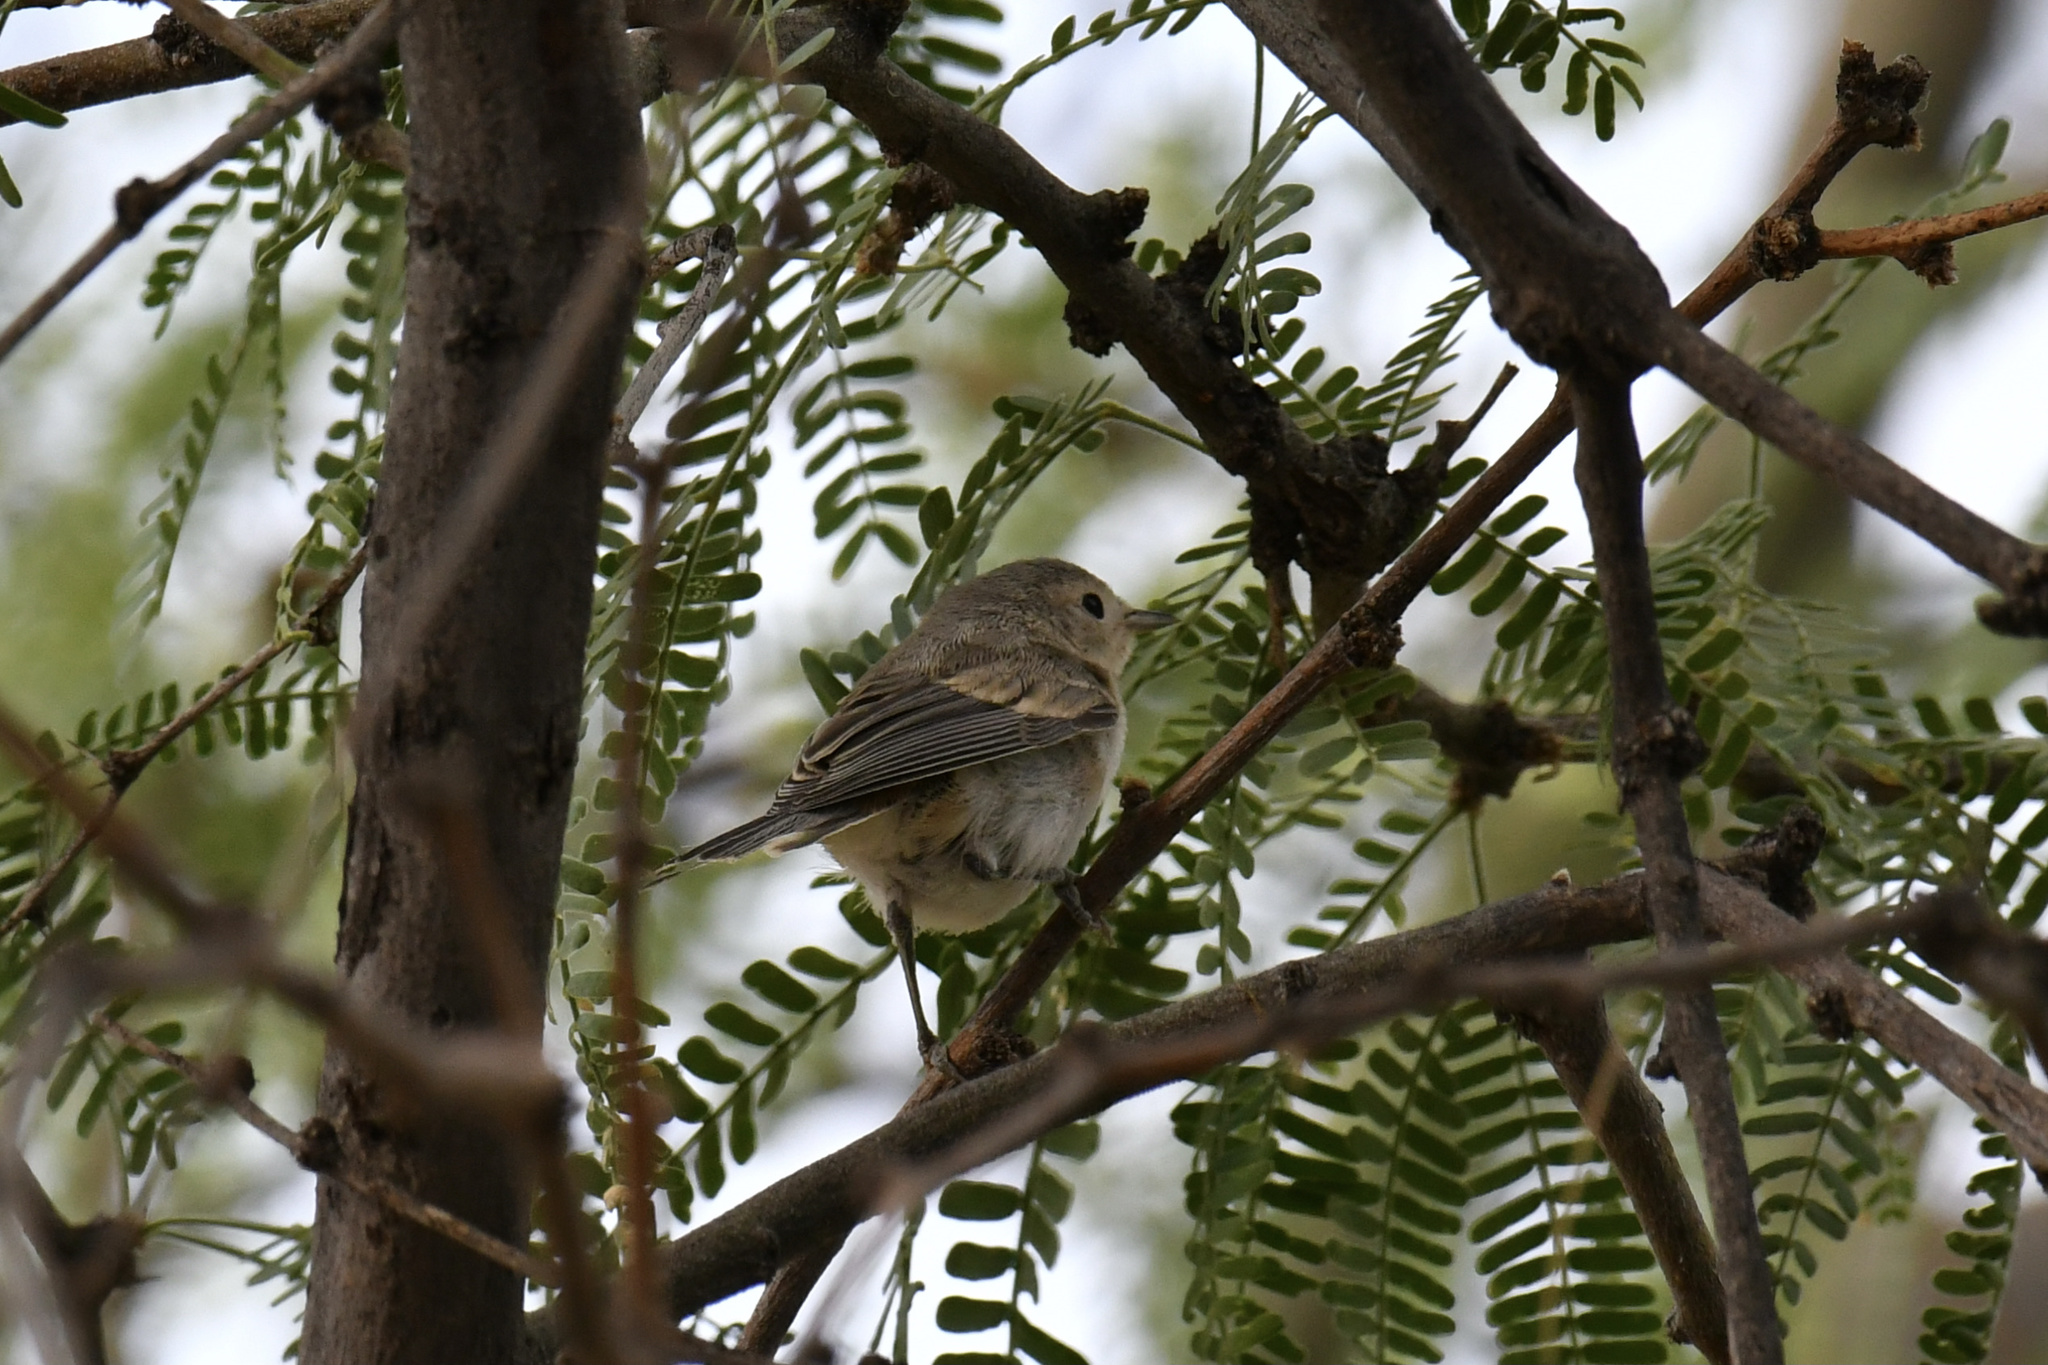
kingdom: Animalia
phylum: Chordata
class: Aves
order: Passeriformes
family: Parulidae
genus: Leiothlypis
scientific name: Leiothlypis luciae
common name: Lucy's warbler
